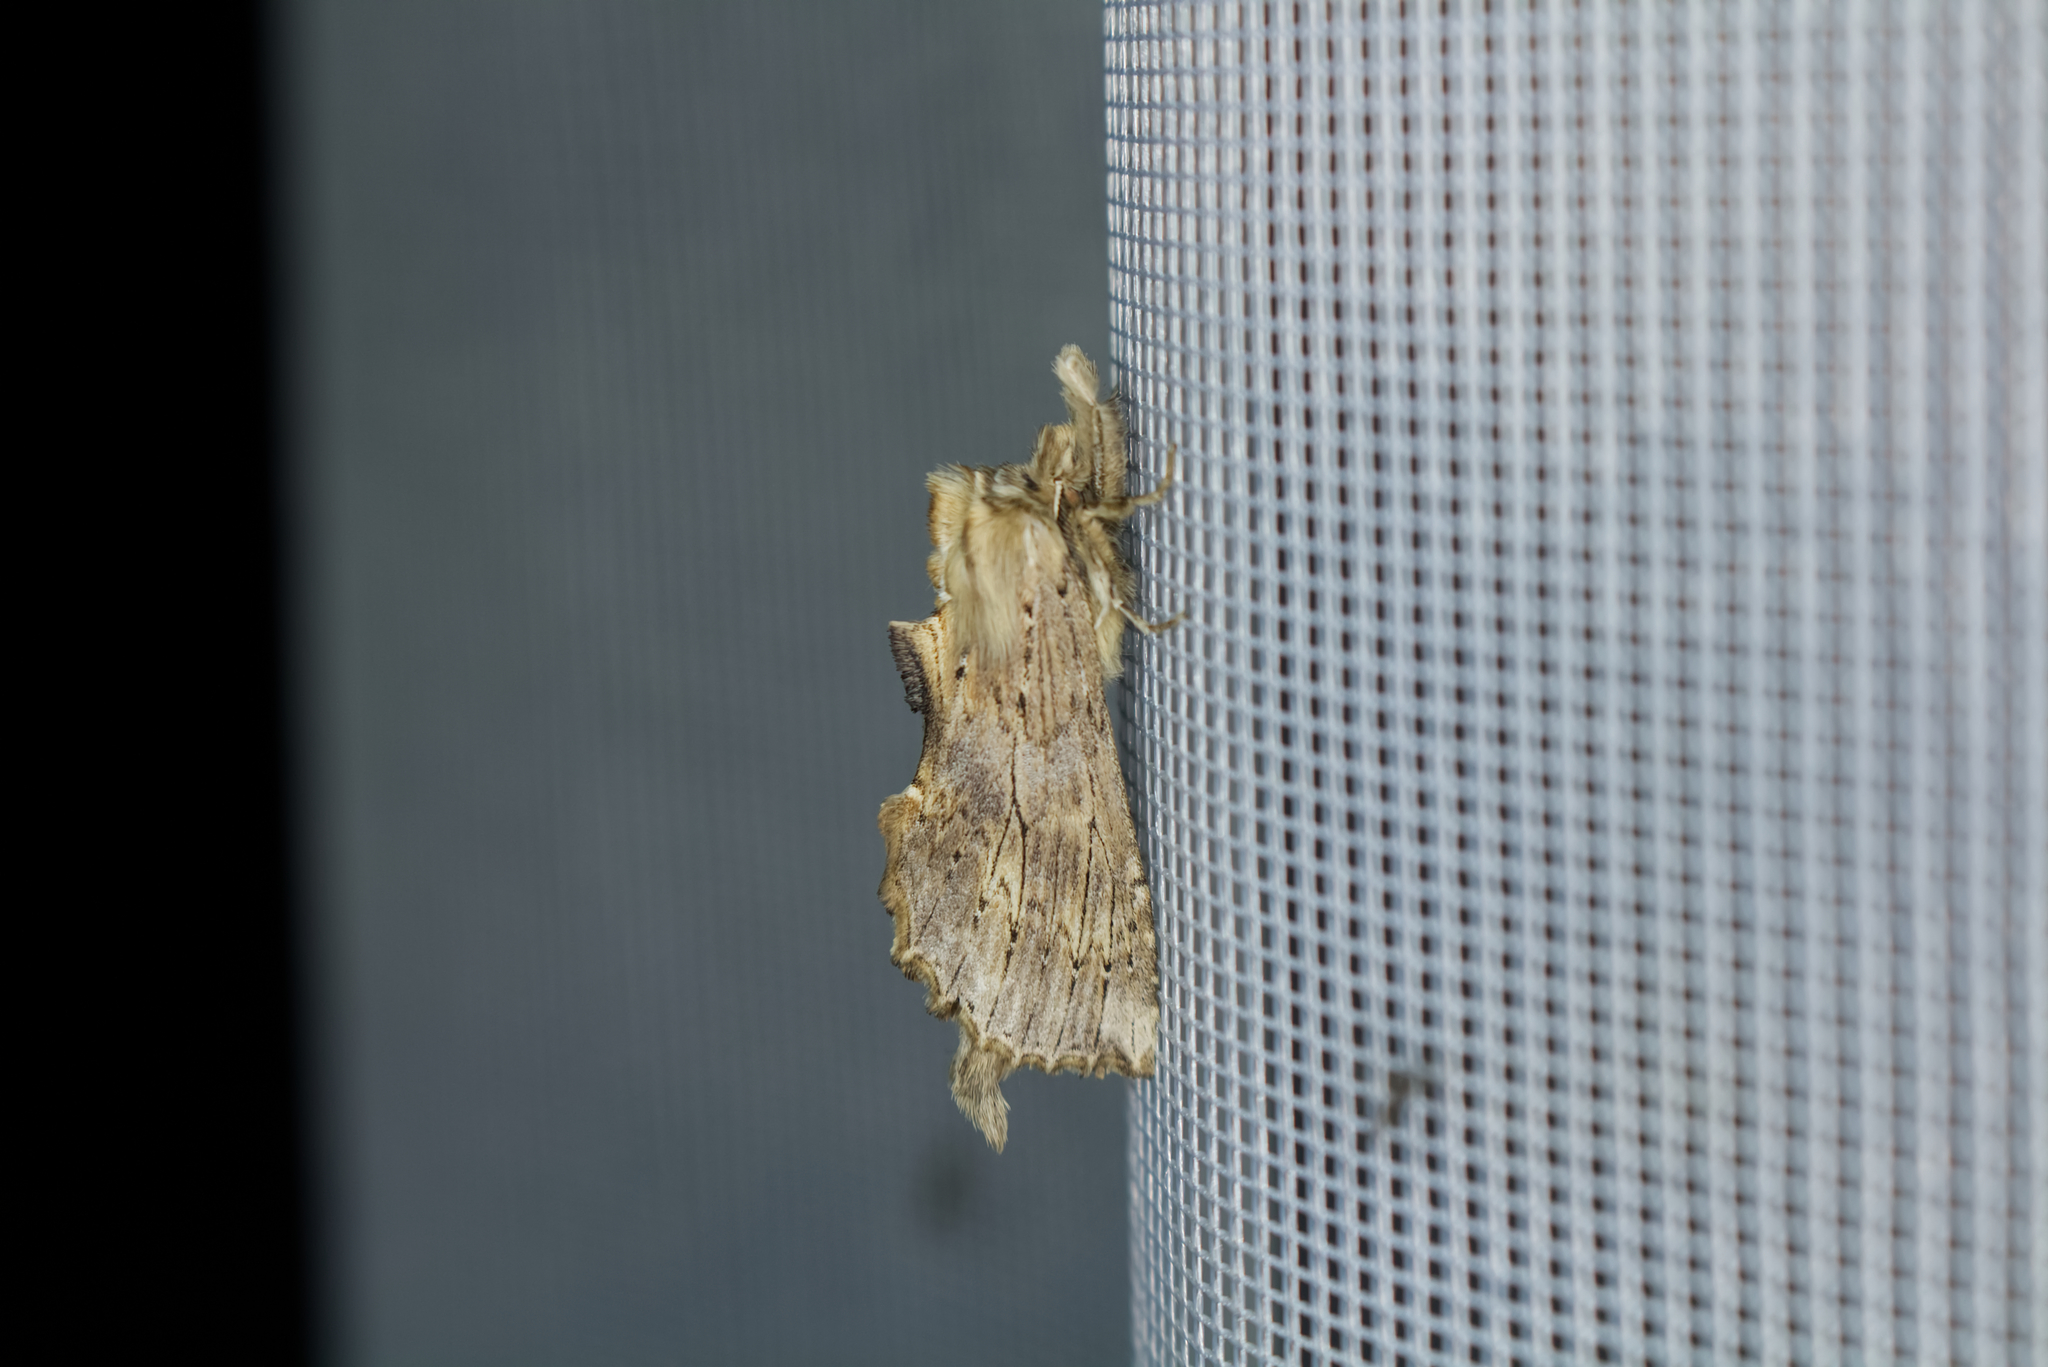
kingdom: Animalia
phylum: Arthropoda
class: Insecta
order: Lepidoptera
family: Notodontidae
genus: Pterostoma
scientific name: Pterostoma palpina
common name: Pale prominent
